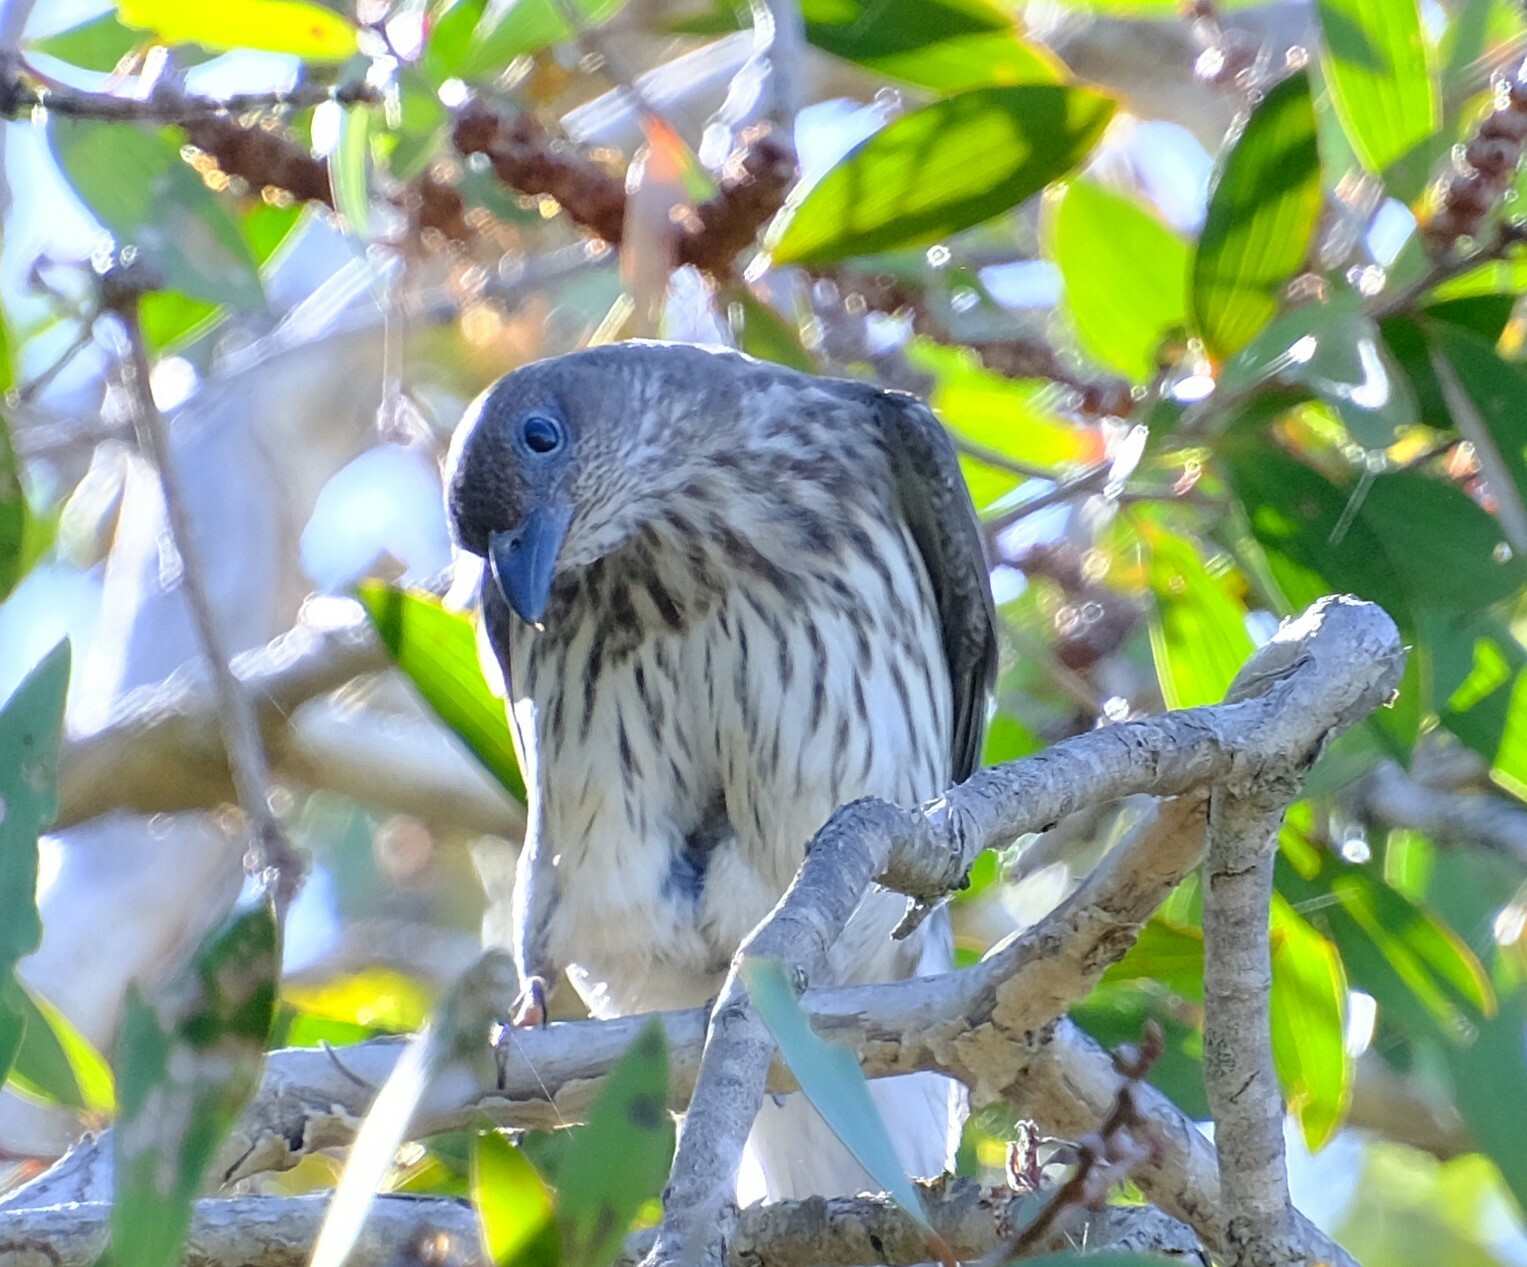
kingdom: Animalia
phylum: Chordata
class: Aves
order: Passeriformes
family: Oriolidae
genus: Sphecotheres
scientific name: Sphecotheres vieilloti
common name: Australasian figbird
